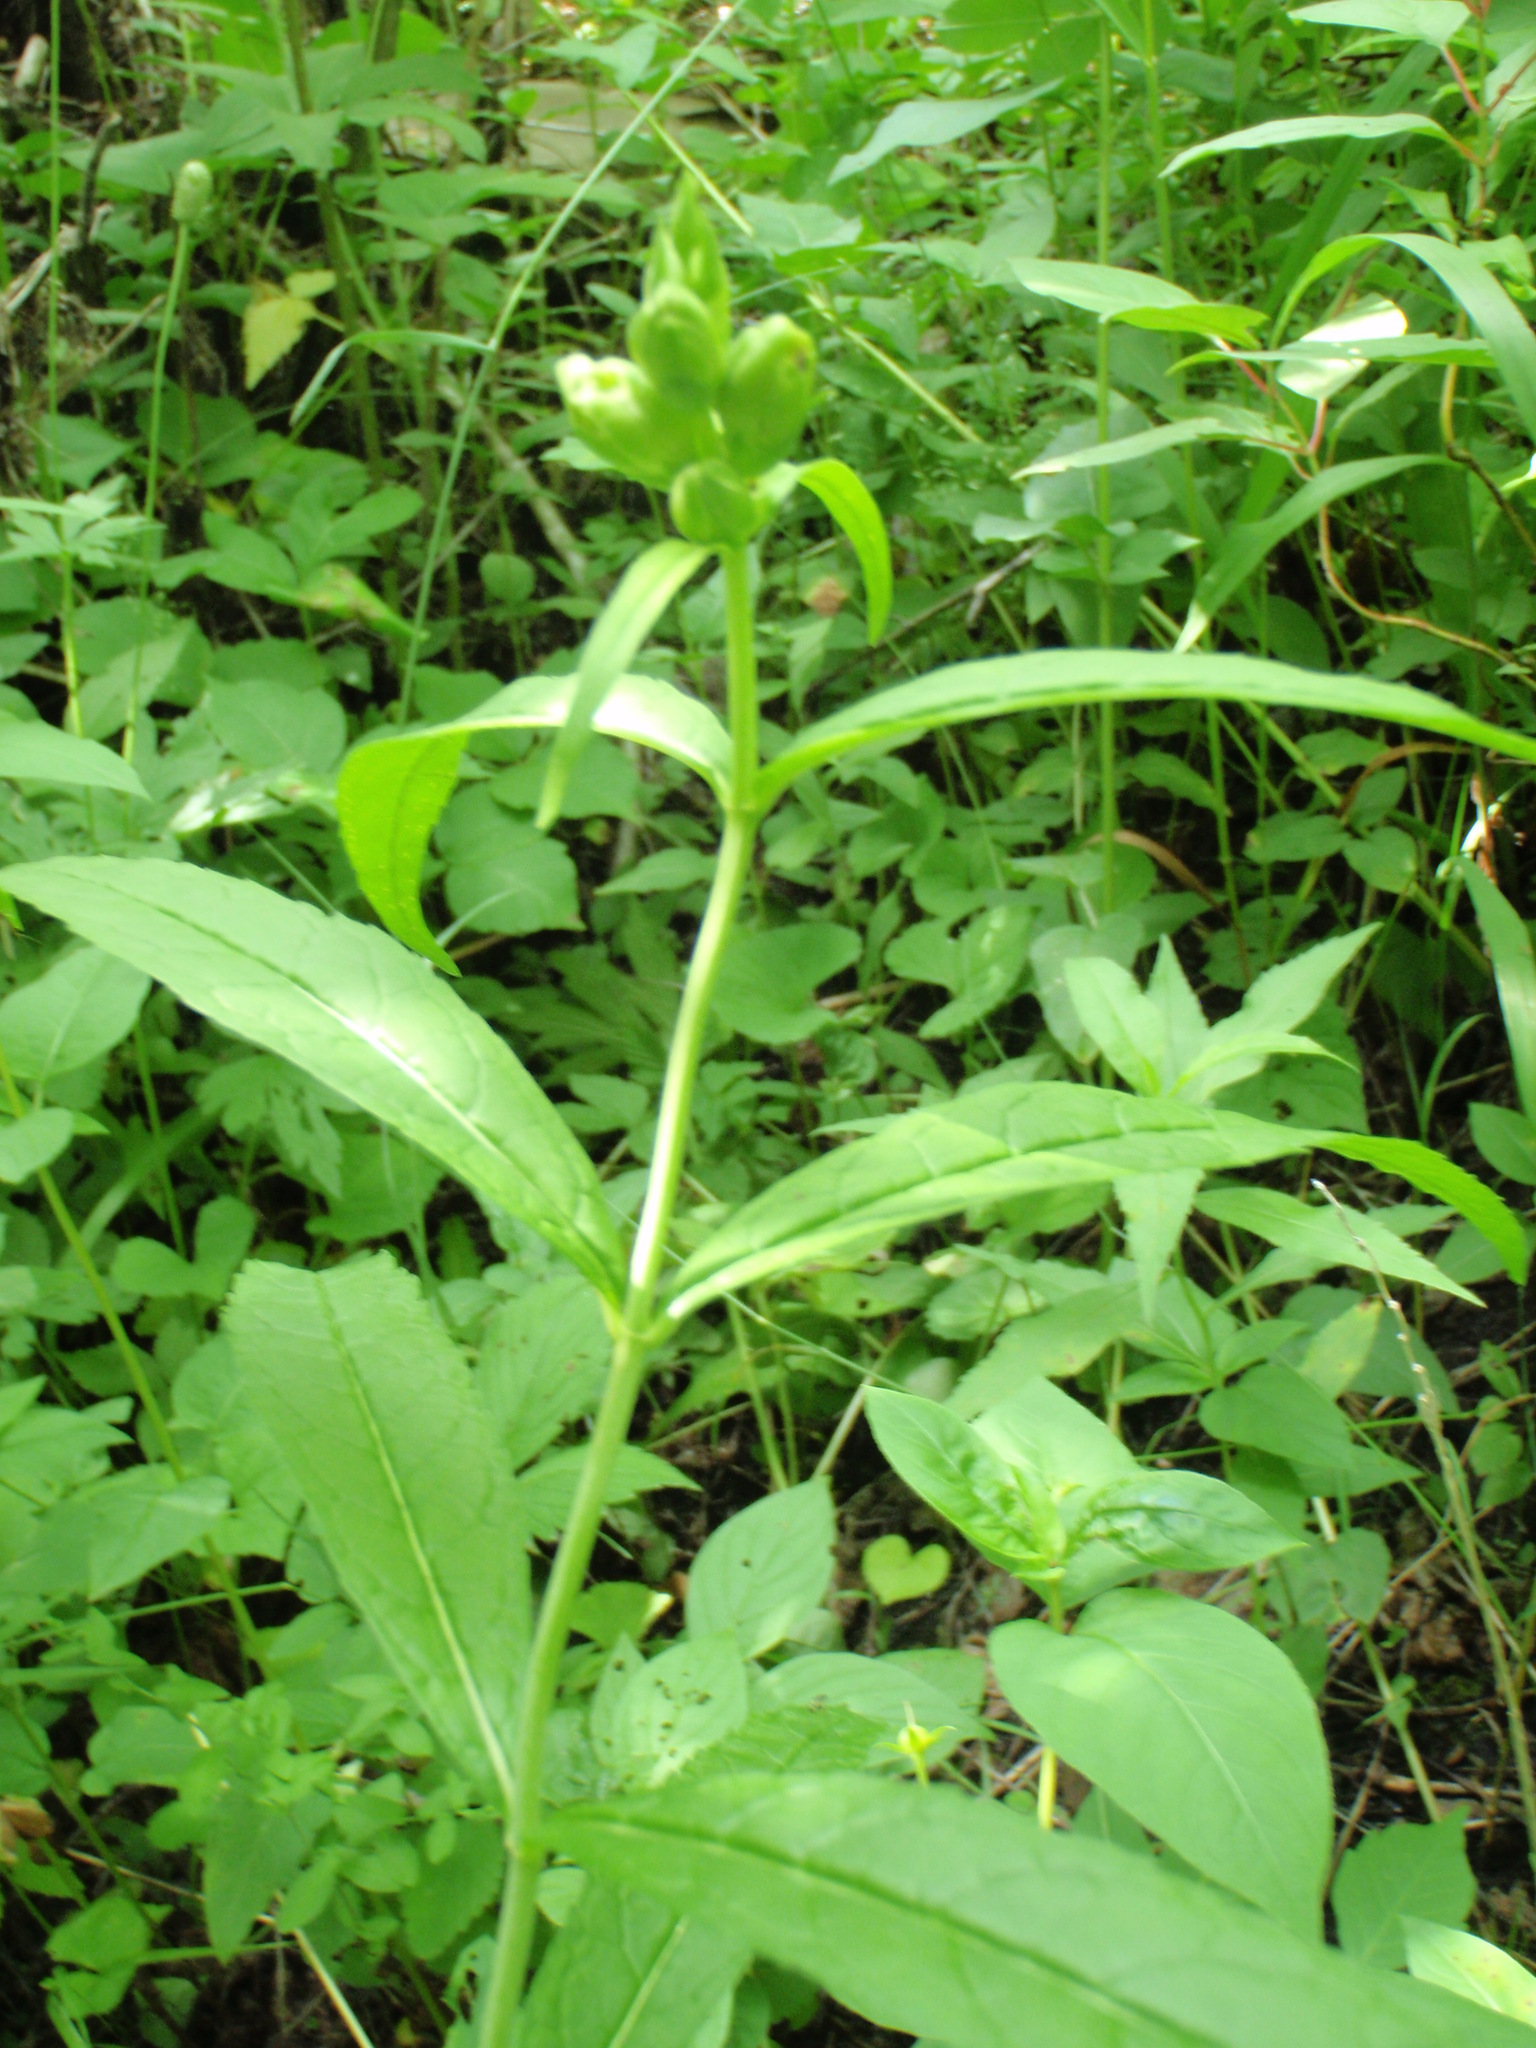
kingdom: Plantae
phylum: Tracheophyta
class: Magnoliopsida
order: Lamiales
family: Plantaginaceae
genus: Chelone
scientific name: Chelone glabra
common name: Snakehead
